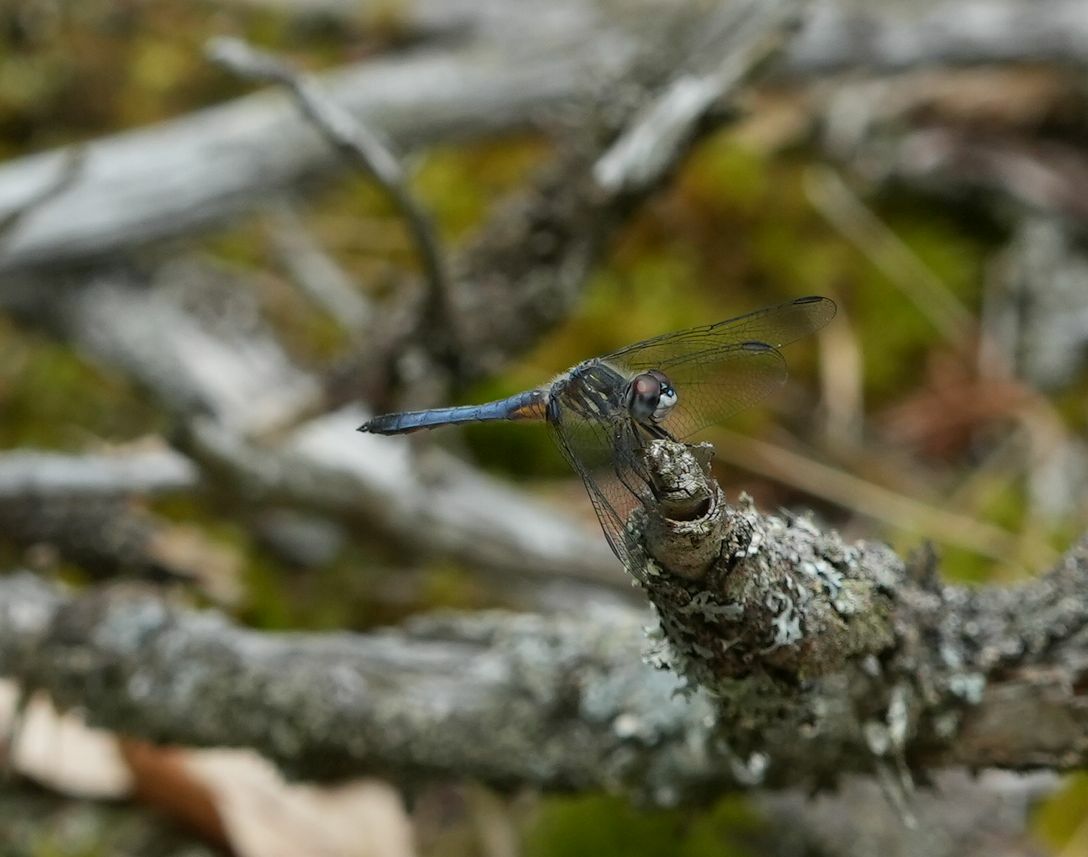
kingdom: Animalia
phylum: Arthropoda
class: Insecta
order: Odonata
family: Libellulidae
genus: Pachydiplax
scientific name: Pachydiplax longipennis
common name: Blue dasher
